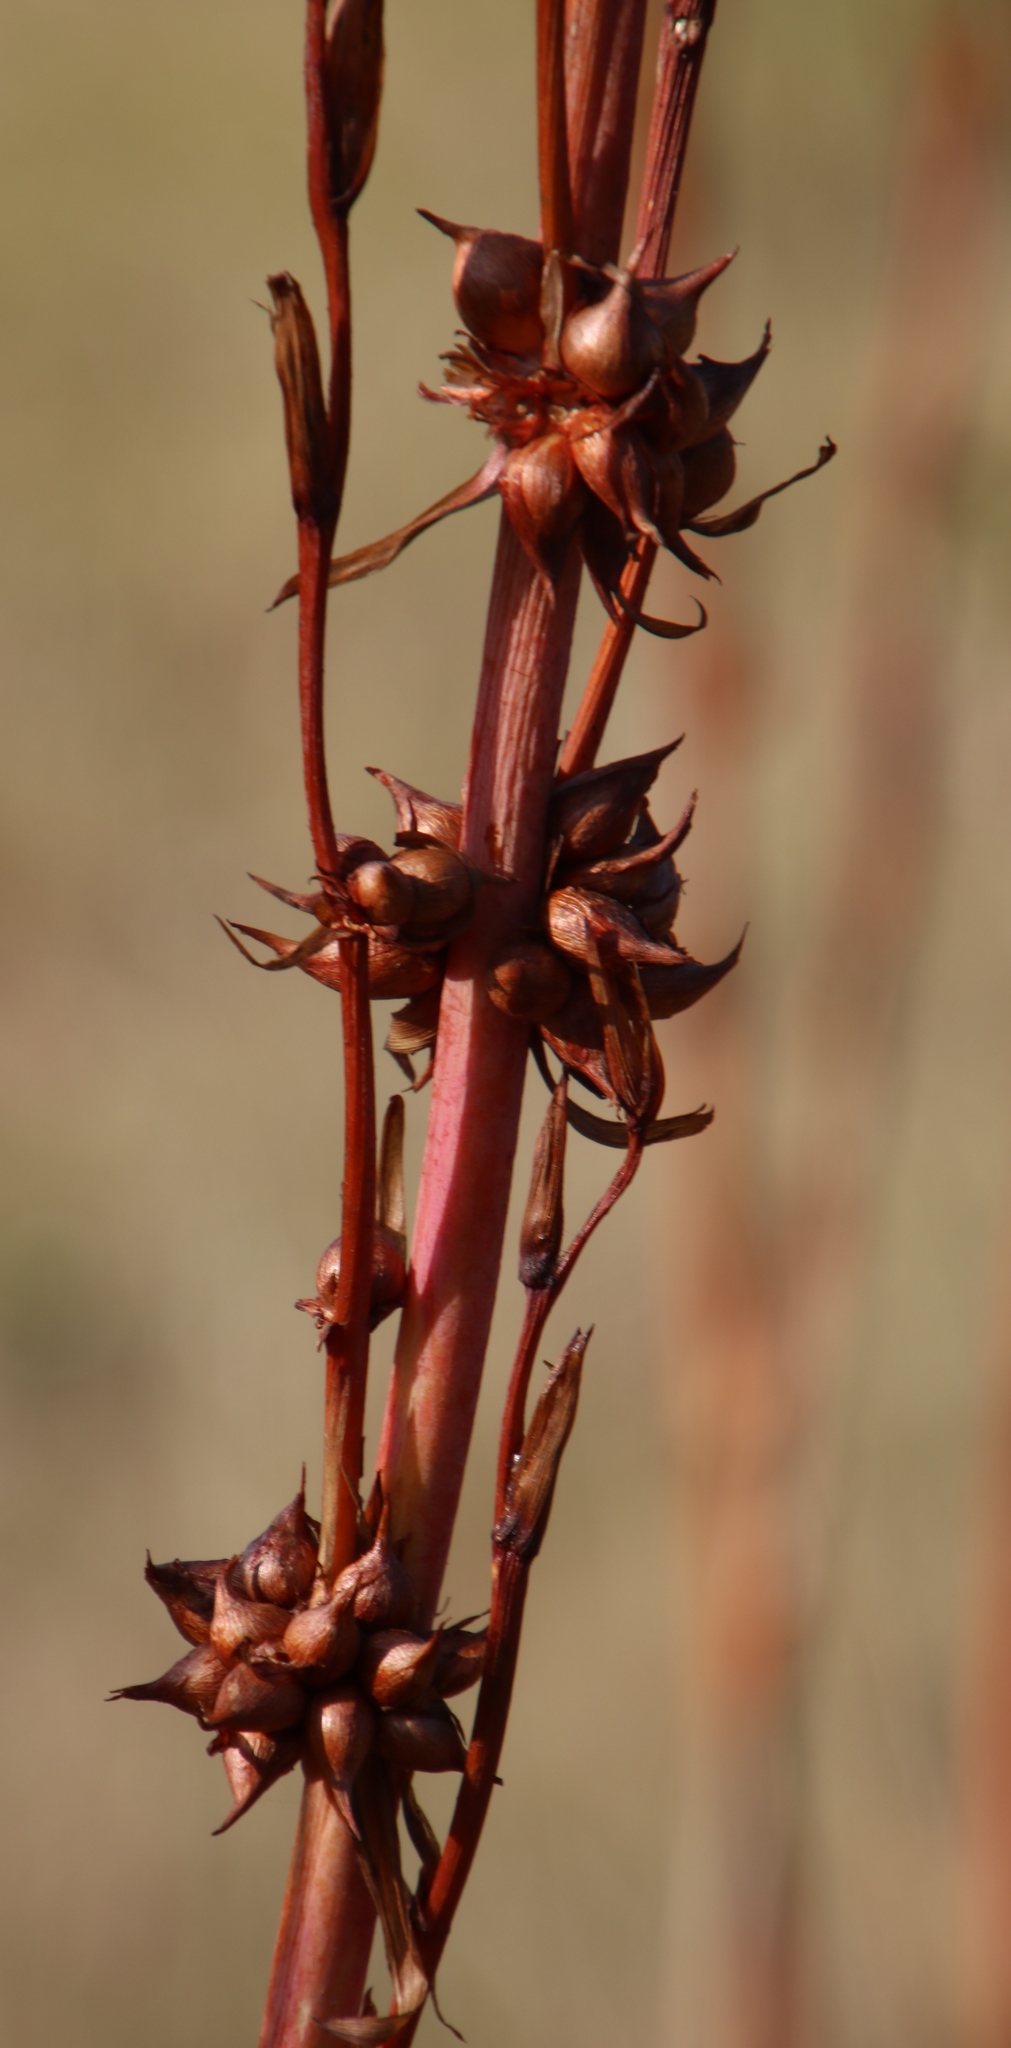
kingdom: Plantae
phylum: Tracheophyta
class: Liliopsida
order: Asparagales
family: Iridaceae
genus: Watsonia
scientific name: Watsonia meriana
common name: Bulbil bugle-lily
